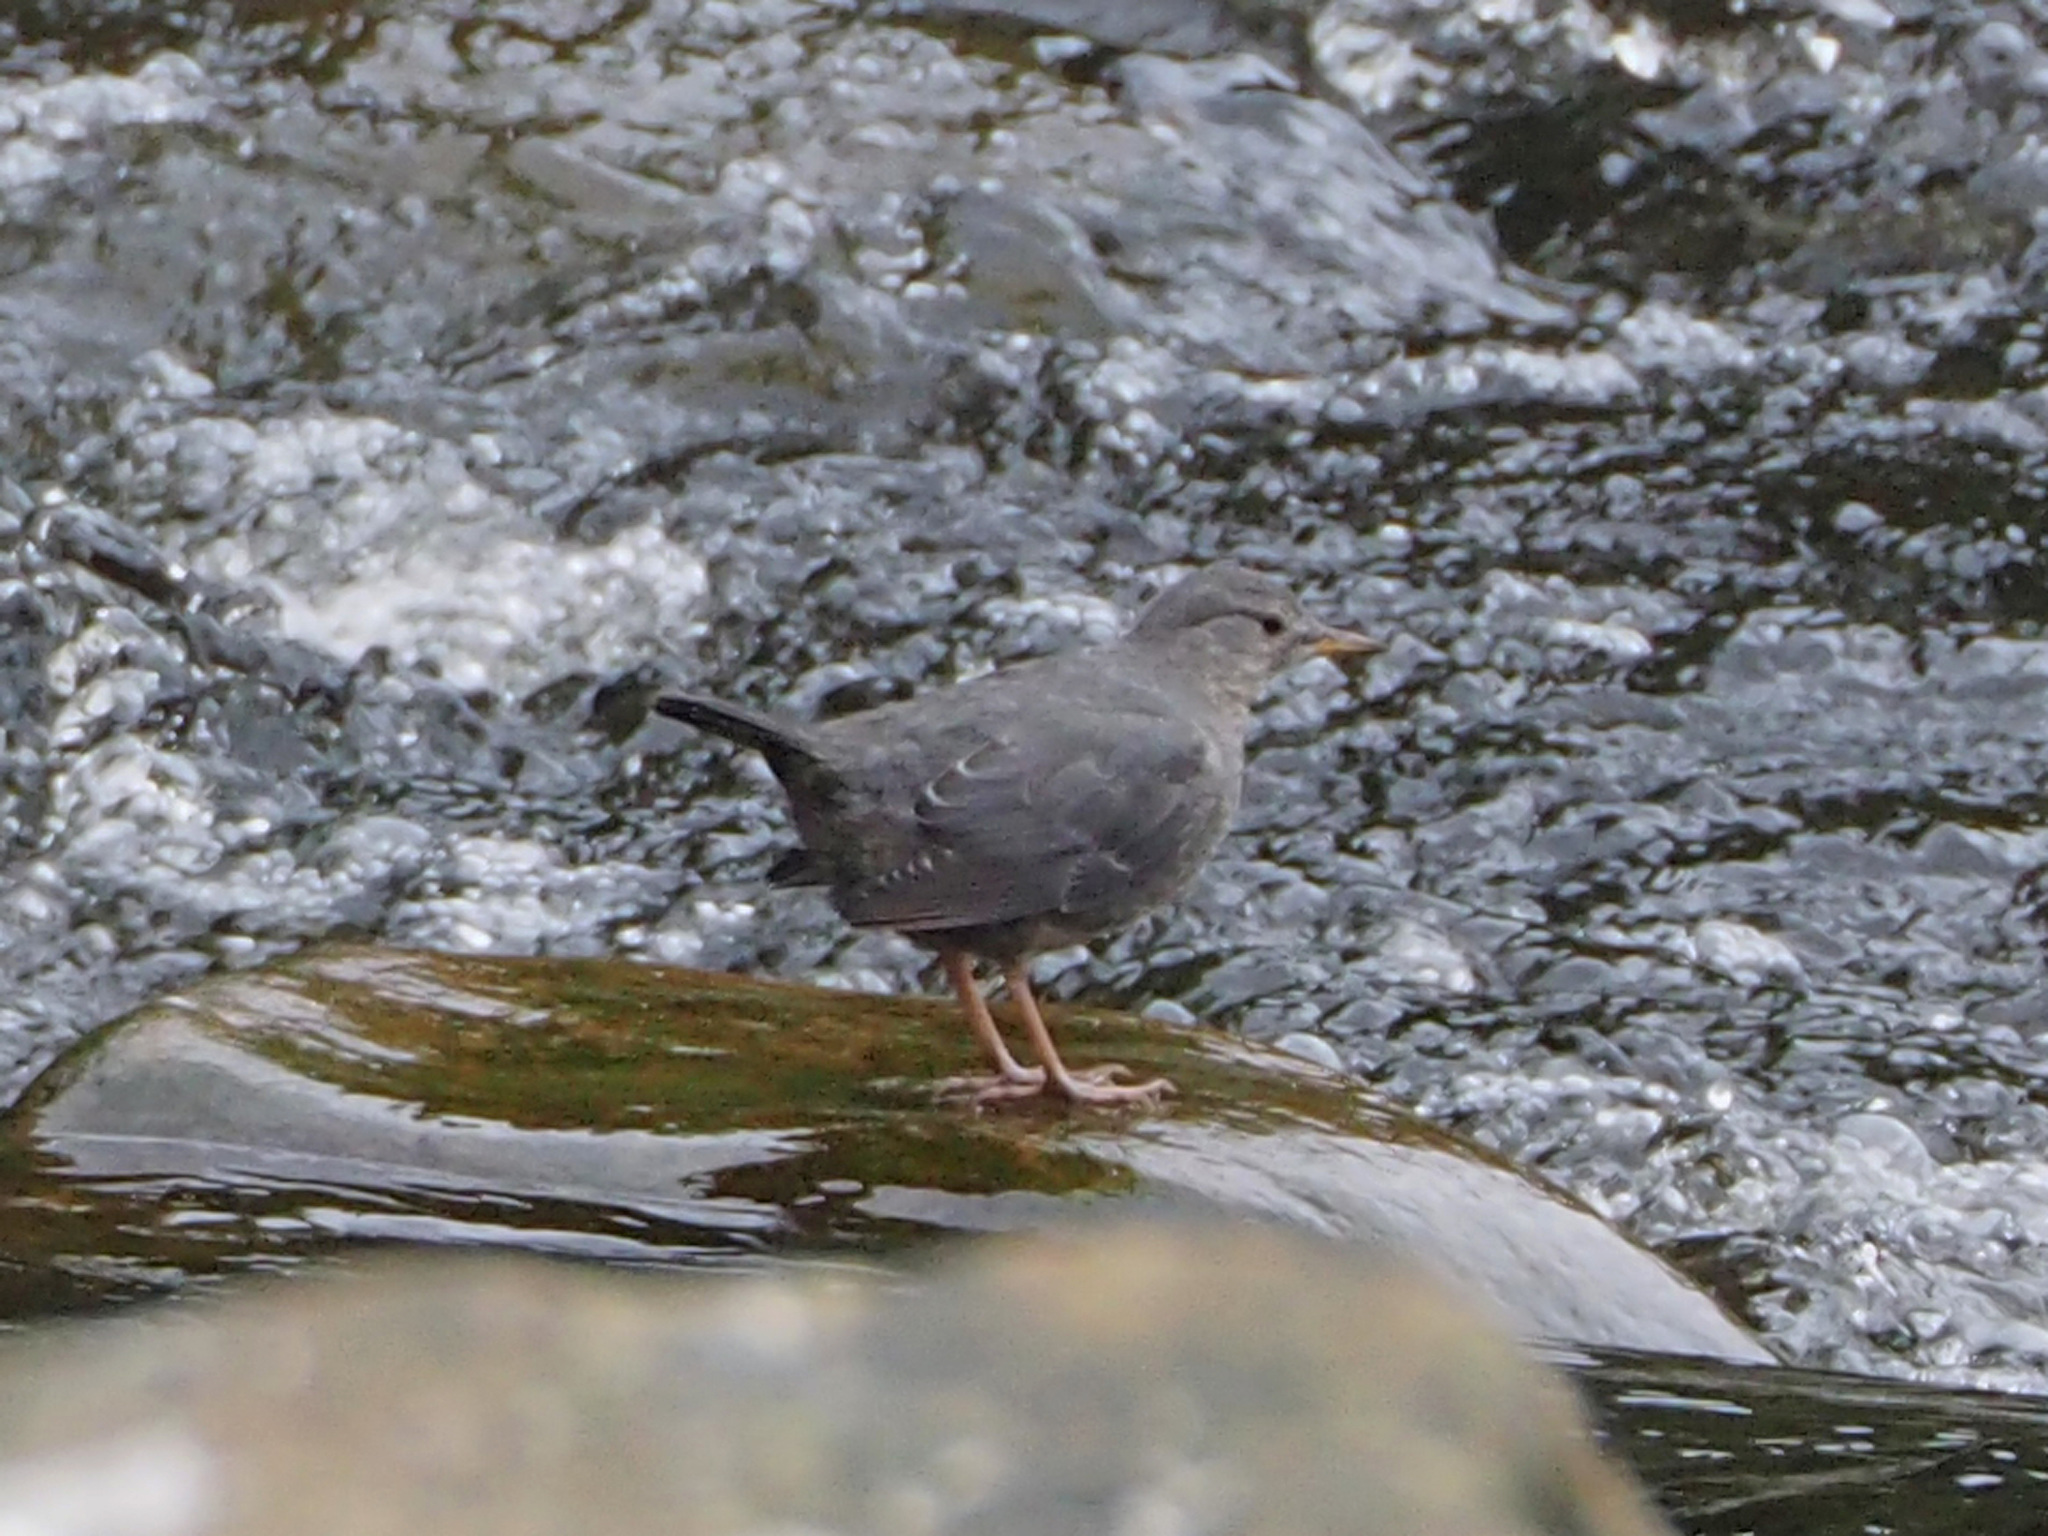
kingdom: Animalia
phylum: Chordata
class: Aves
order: Passeriformes
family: Cinclidae
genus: Cinclus
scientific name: Cinclus mexicanus
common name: American dipper
